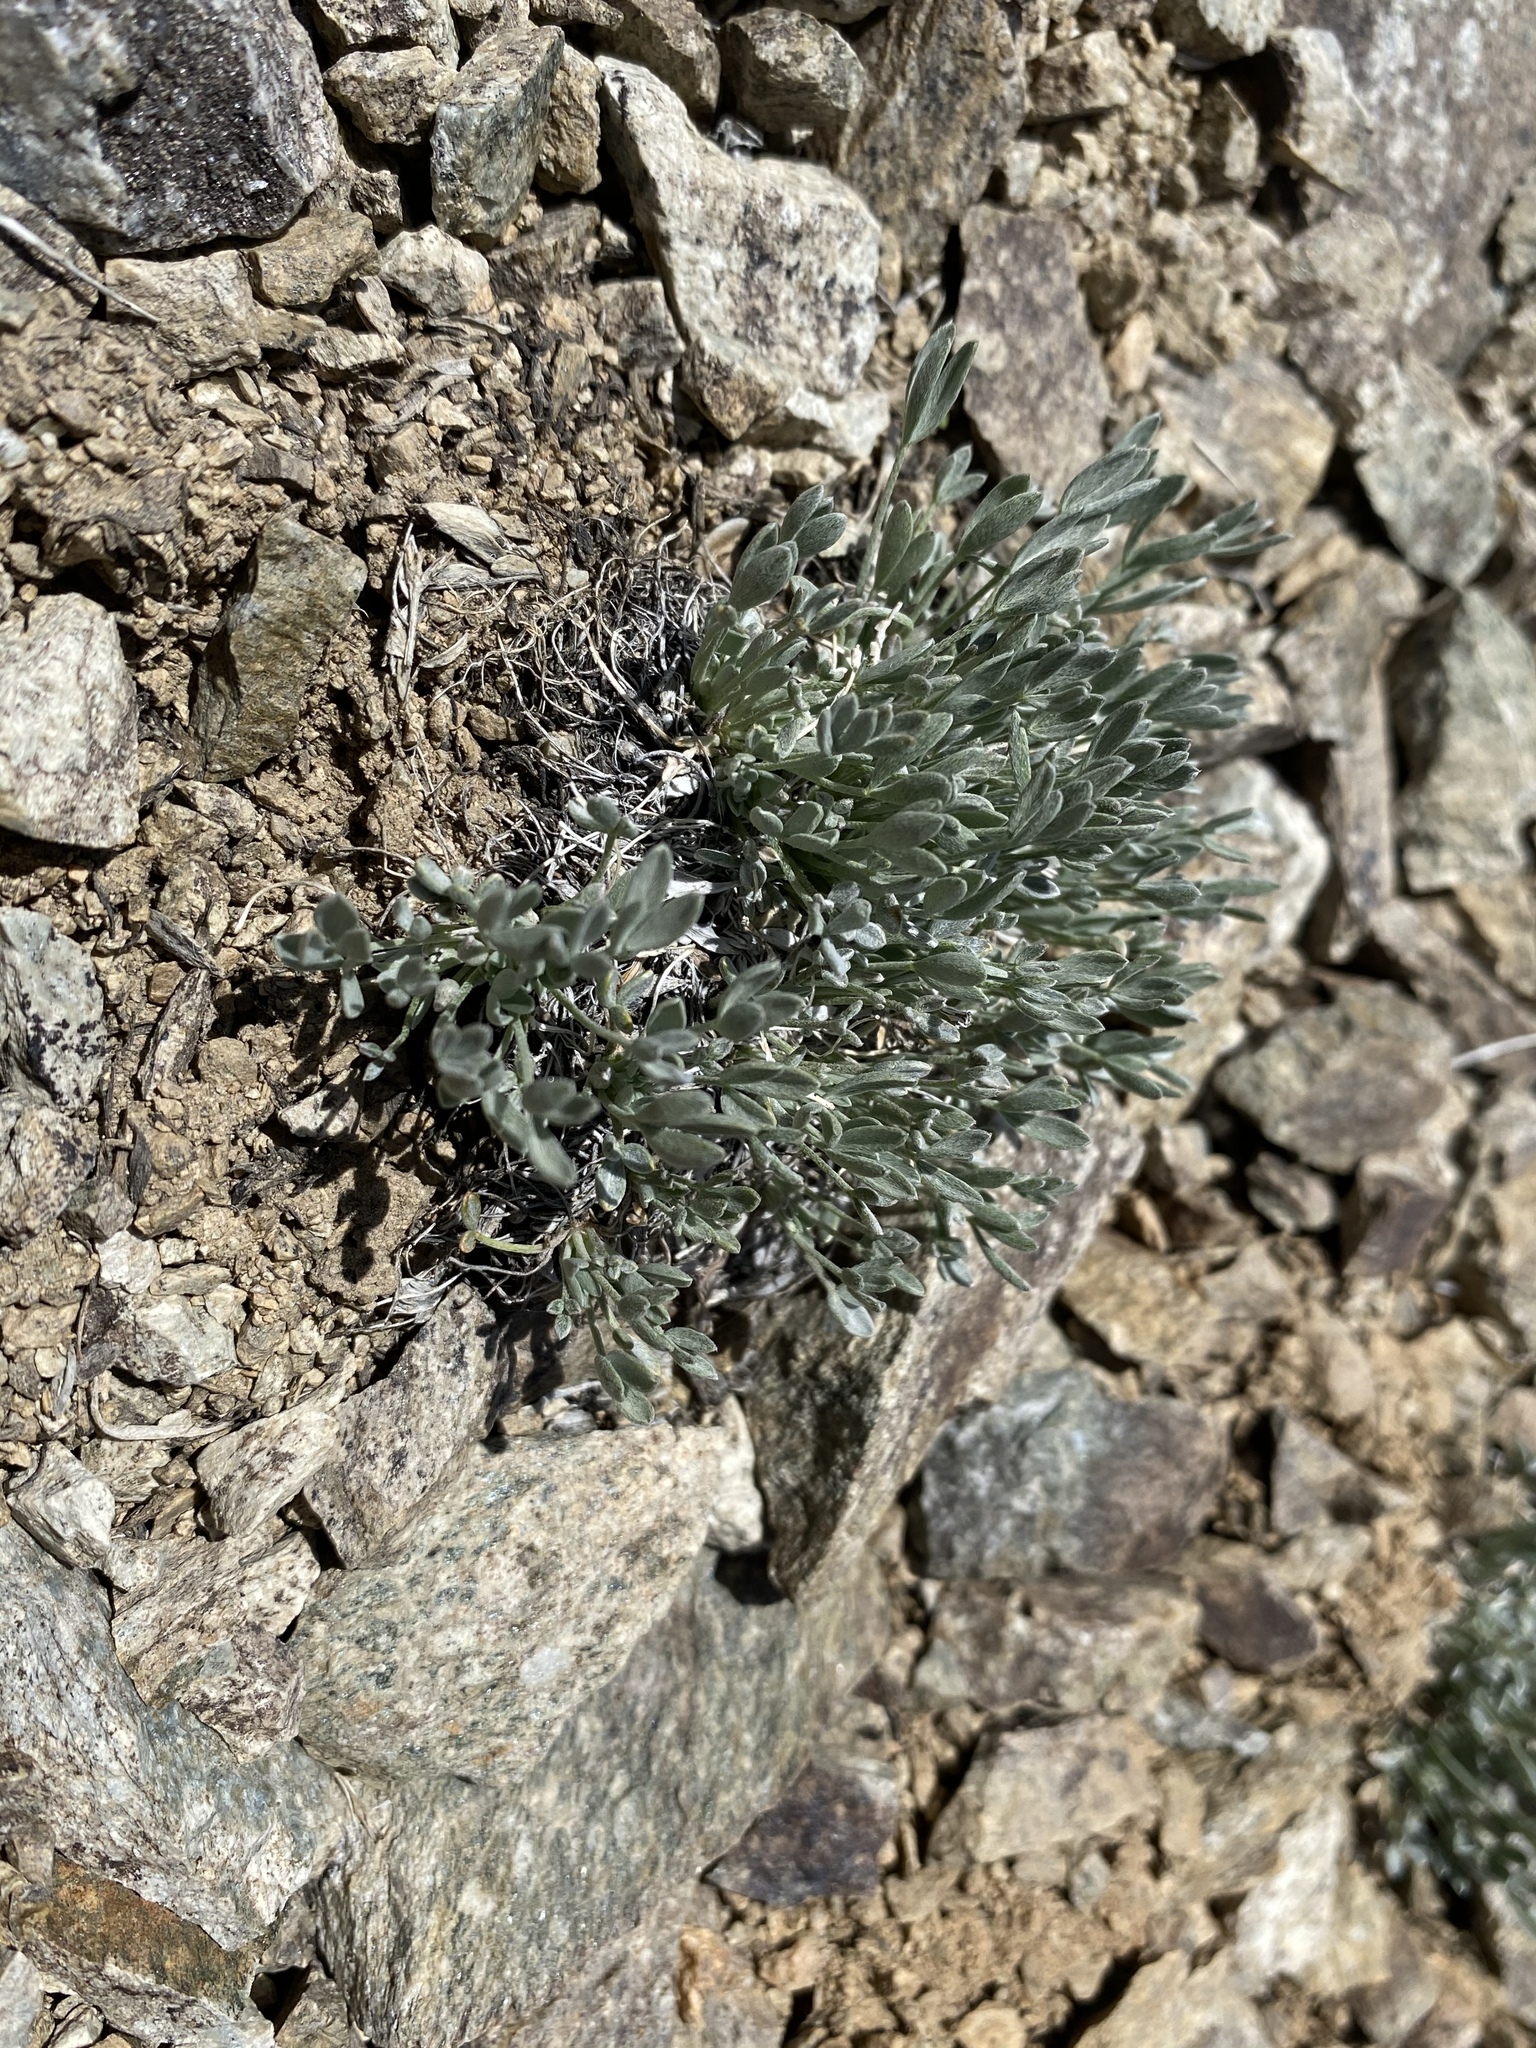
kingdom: Plantae
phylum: Tracheophyta
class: Magnoliopsida
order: Fabales
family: Fabaceae
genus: Astragalus
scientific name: Astragalus calycosus
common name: King's milkvetch
